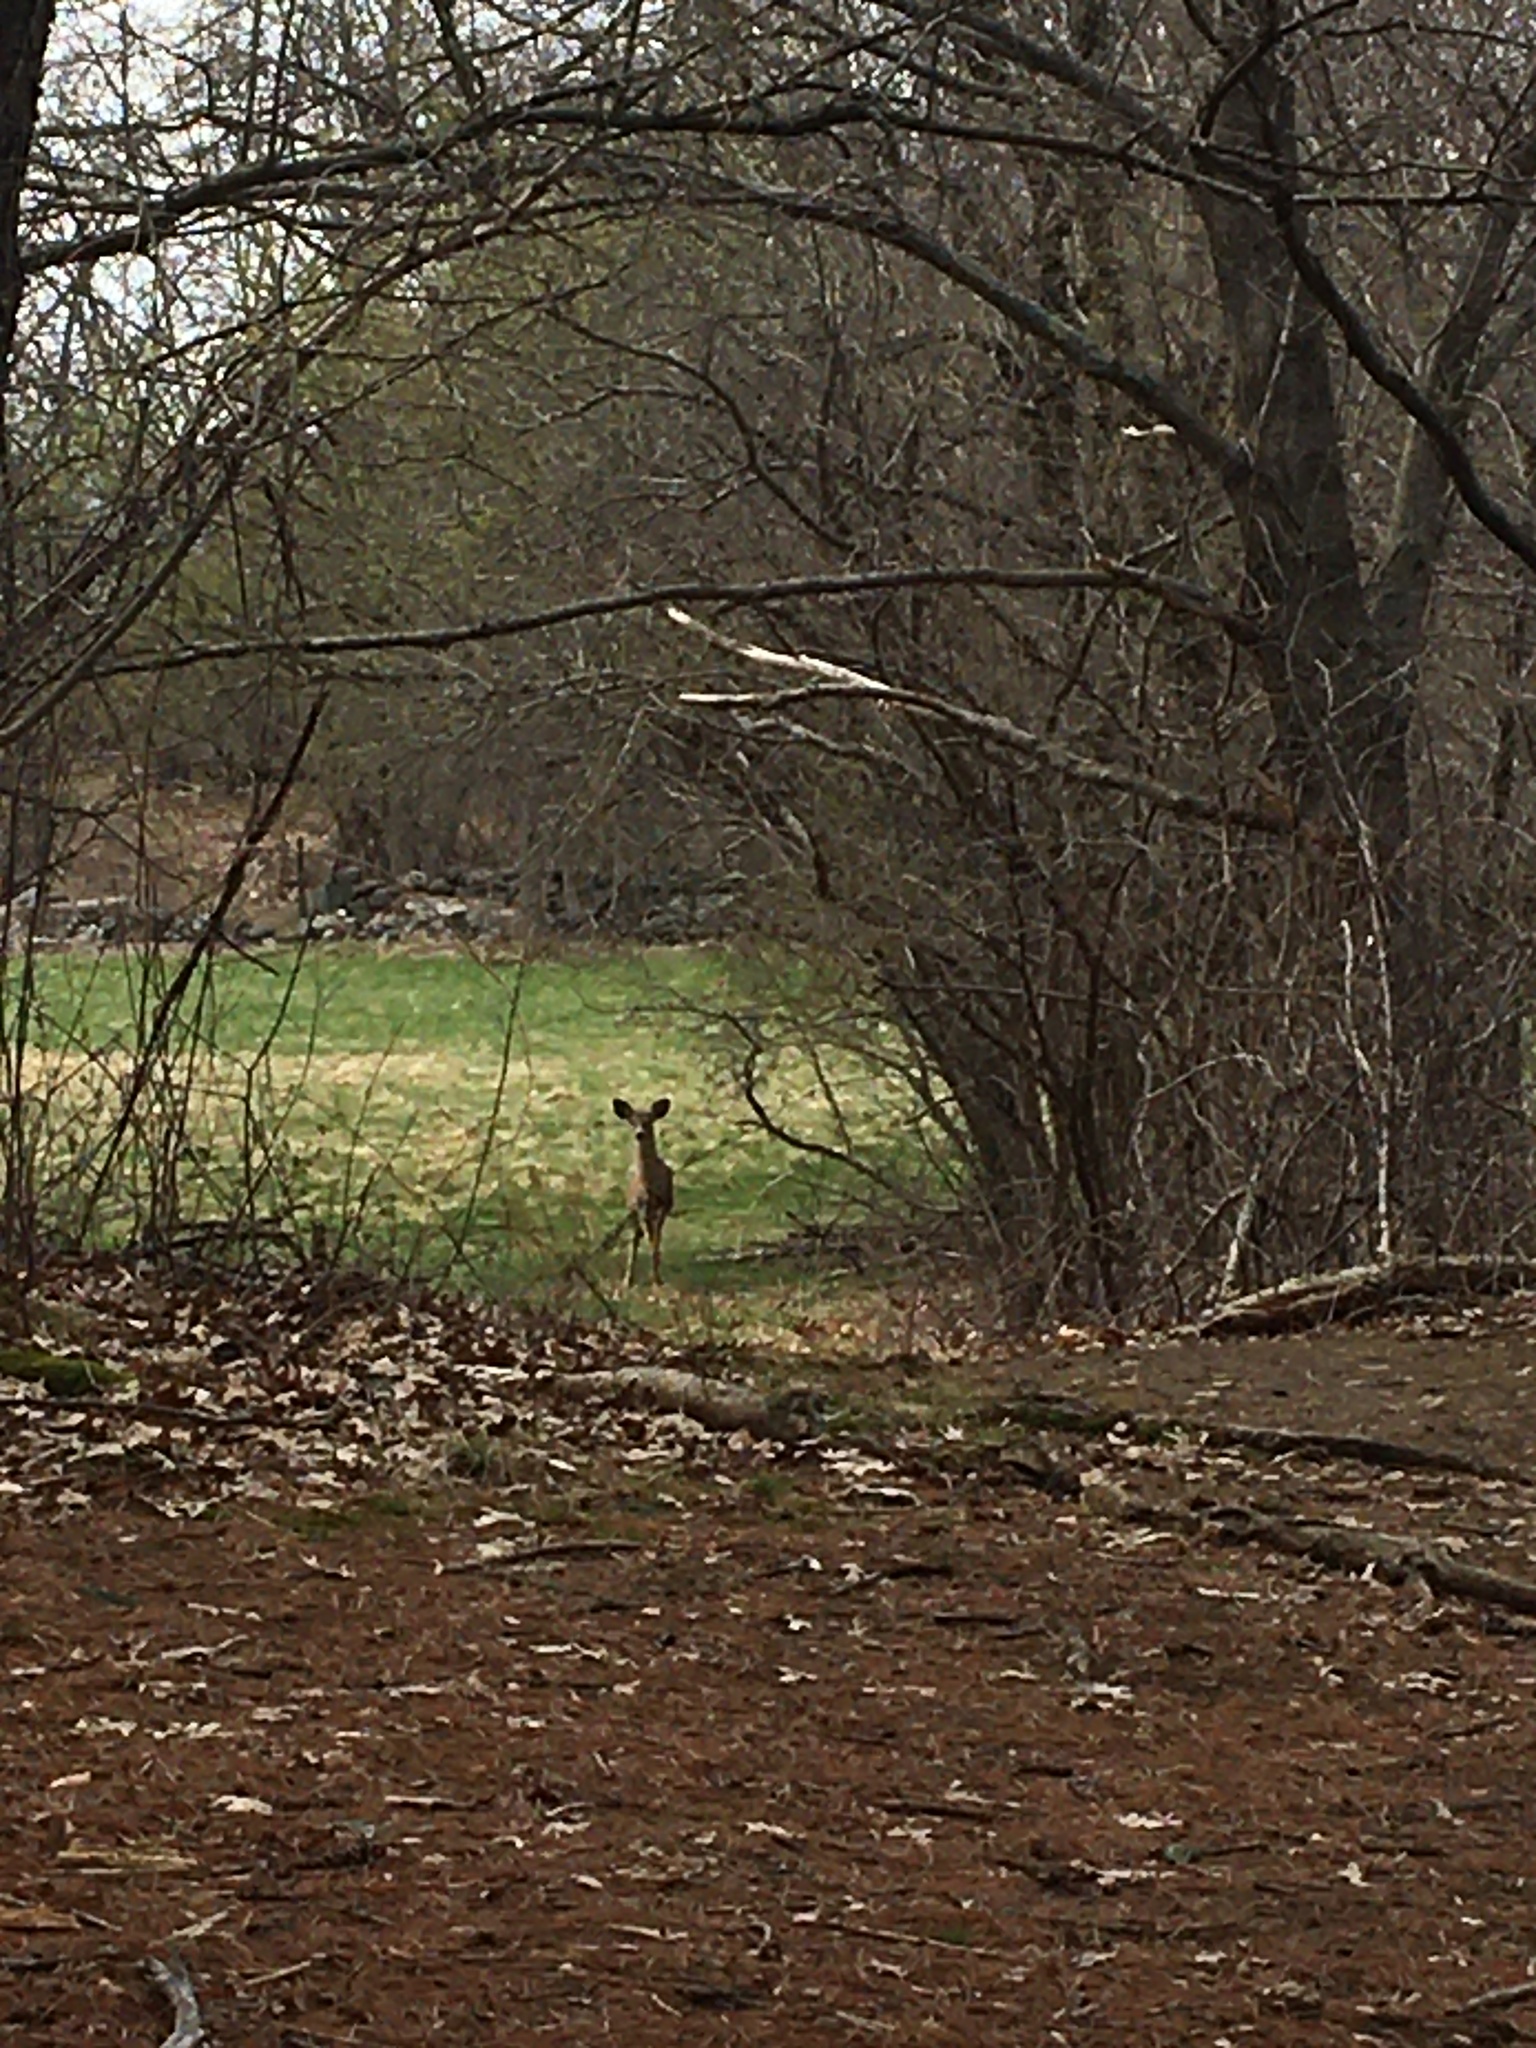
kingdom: Animalia
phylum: Chordata
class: Mammalia
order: Artiodactyla
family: Cervidae
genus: Odocoileus
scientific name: Odocoileus virginianus
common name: White-tailed deer
